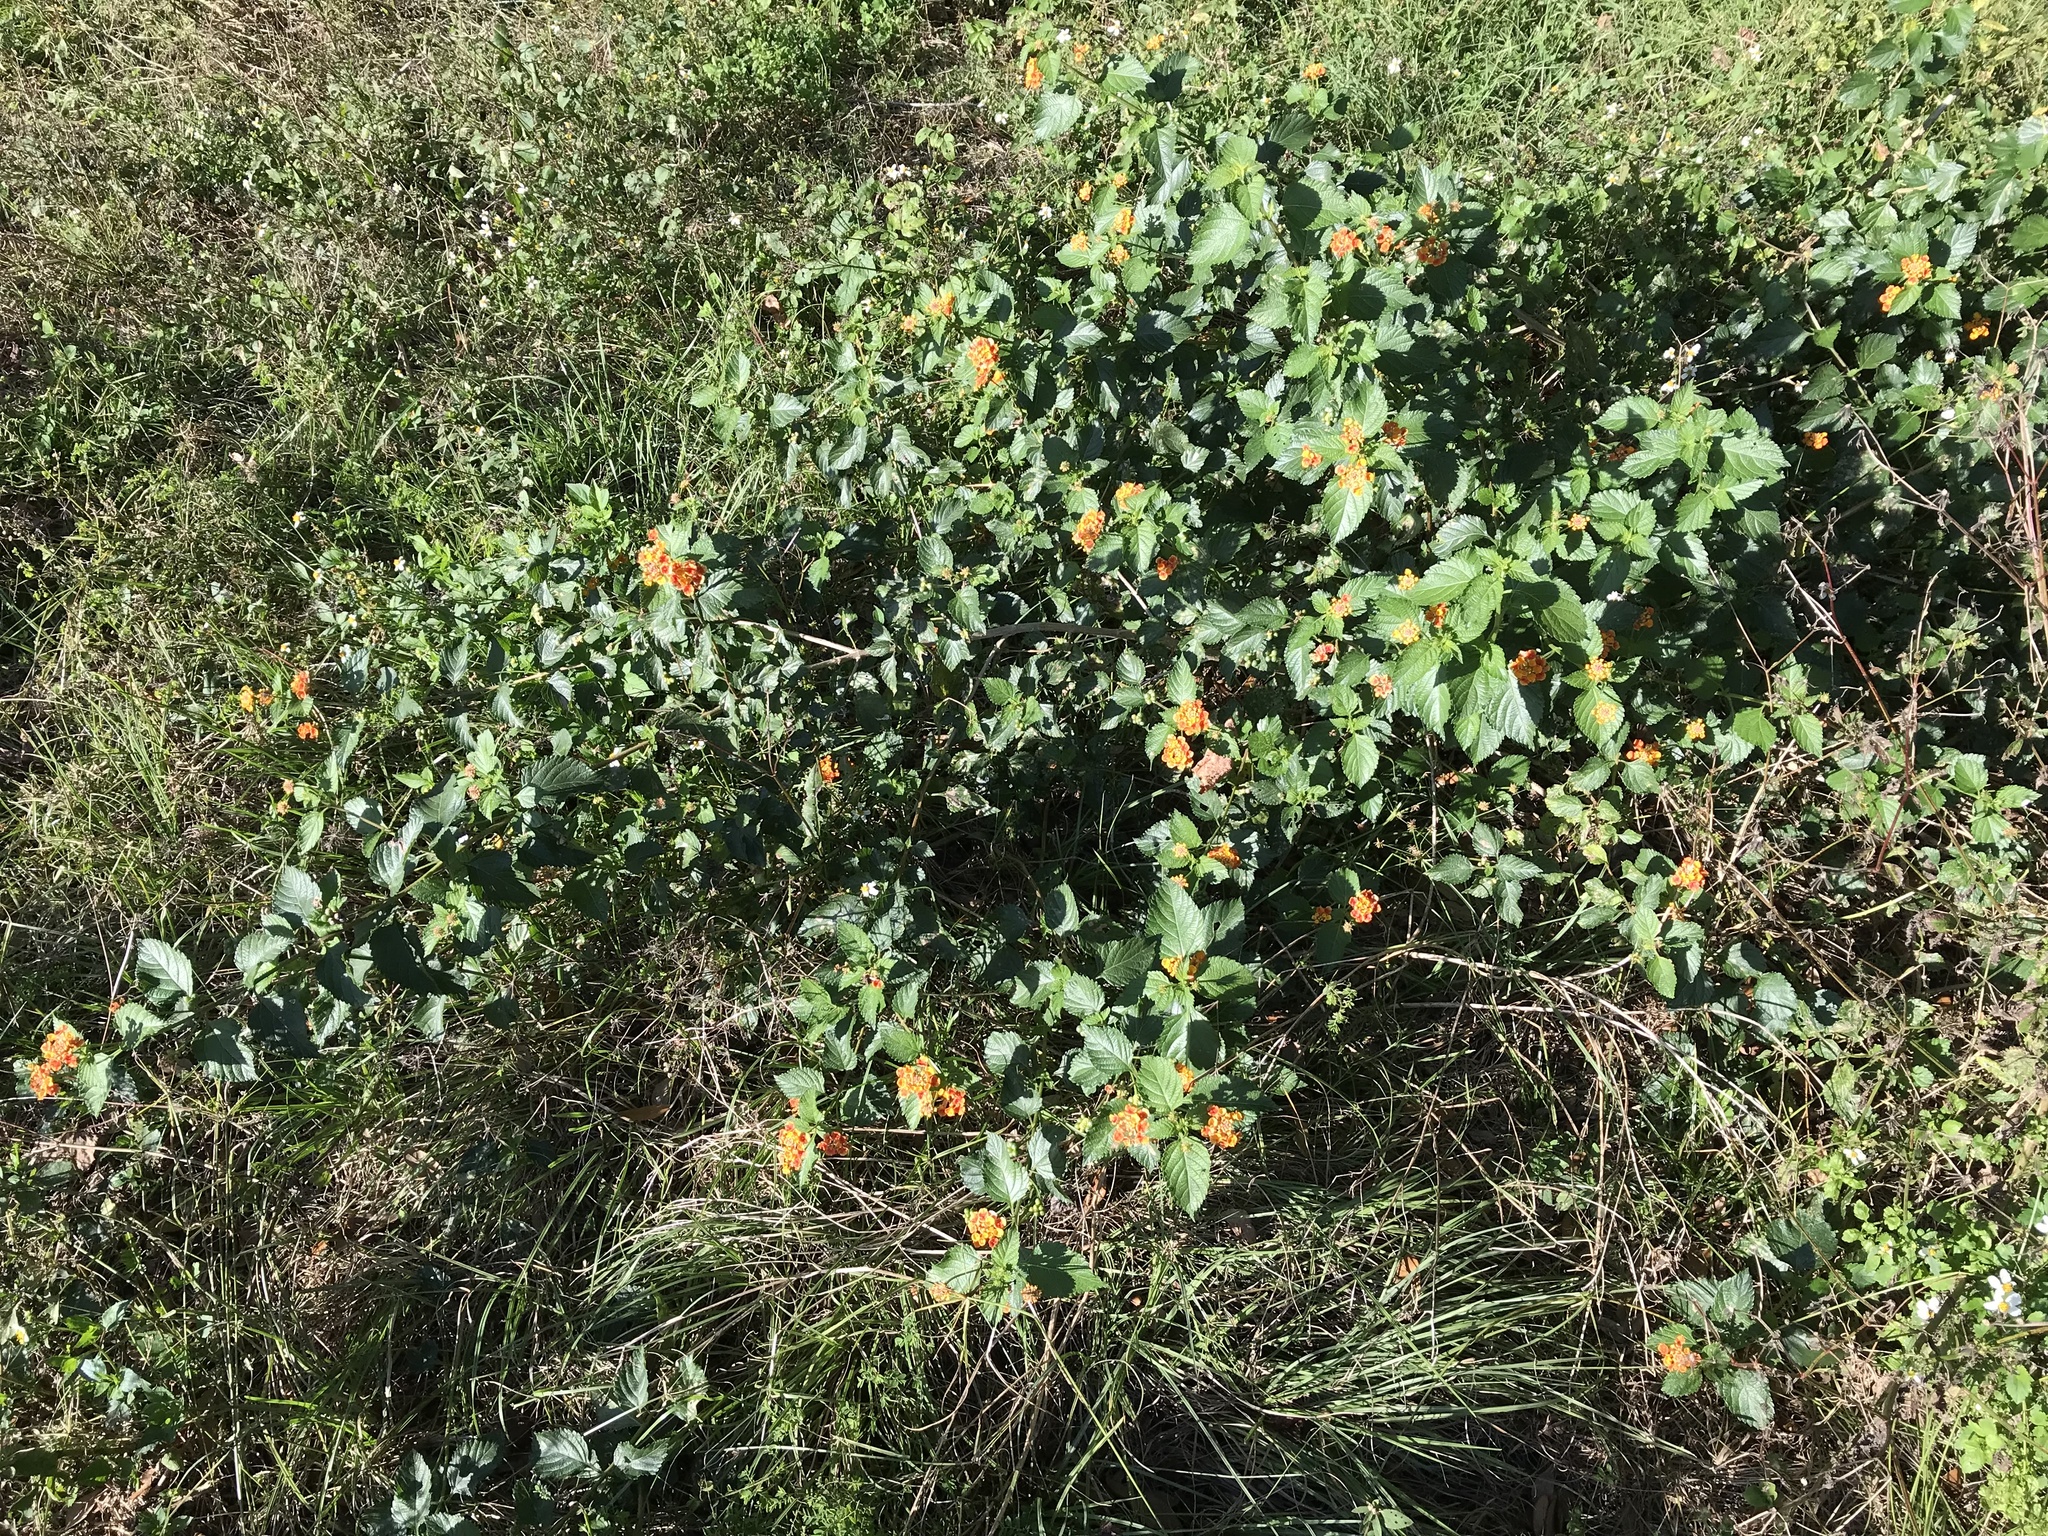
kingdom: Plantae
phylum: Tracheophyta
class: Magnoliopsida
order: Lamiales
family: Verbenaceae
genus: Lantana
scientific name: Lantana camara
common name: Lantana
